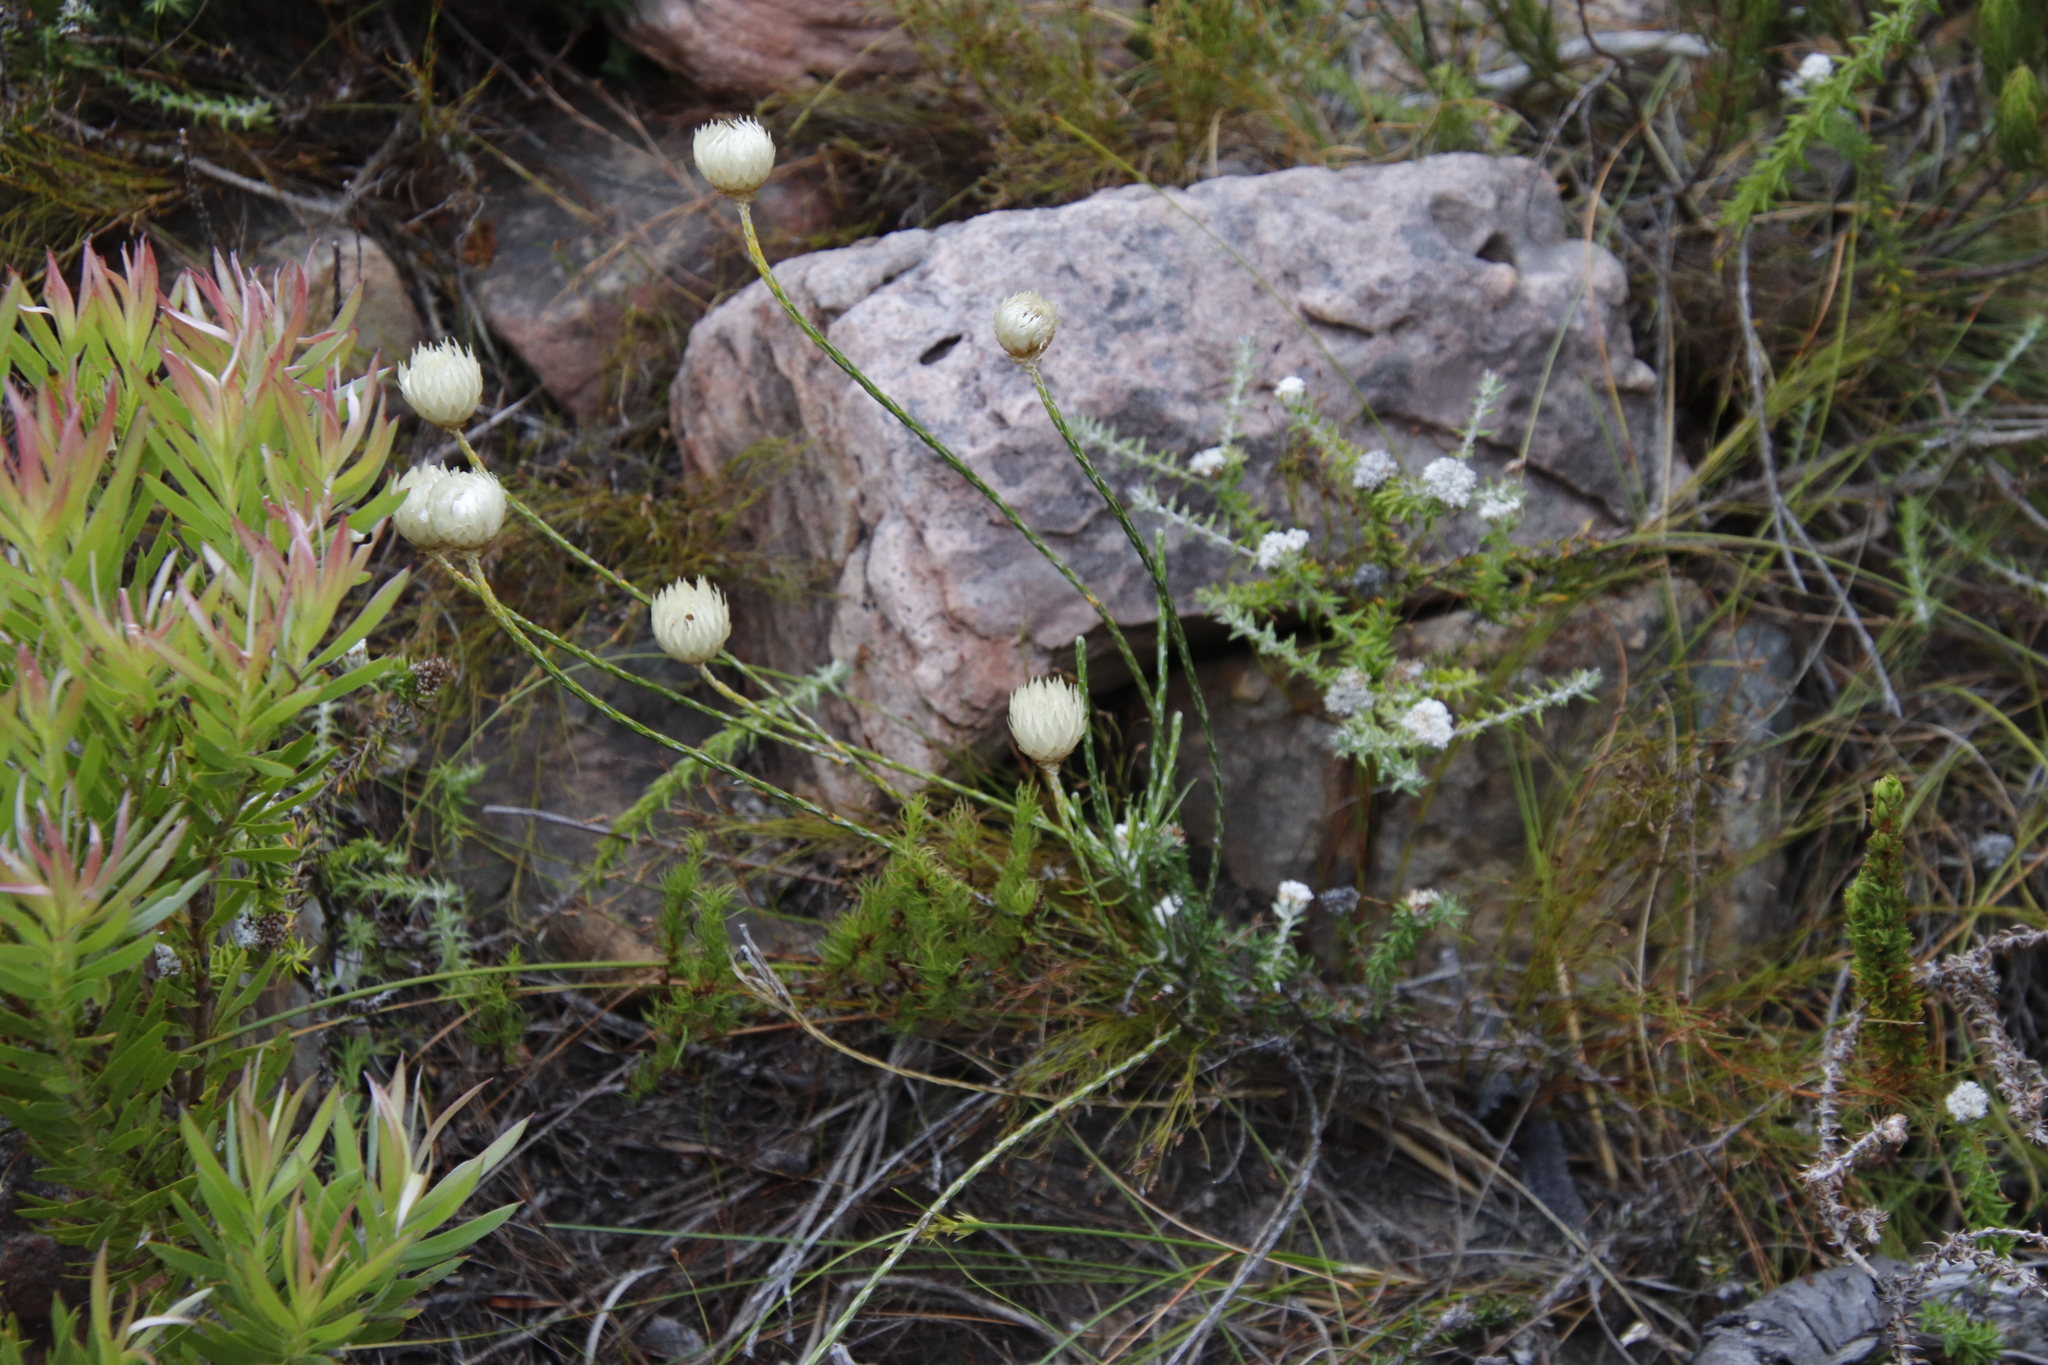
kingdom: Plantae
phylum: Tracheophyta
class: Magnoliopsida
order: Asterales
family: Asteraceae
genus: Edmondia
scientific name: Edmondia sesamoides
